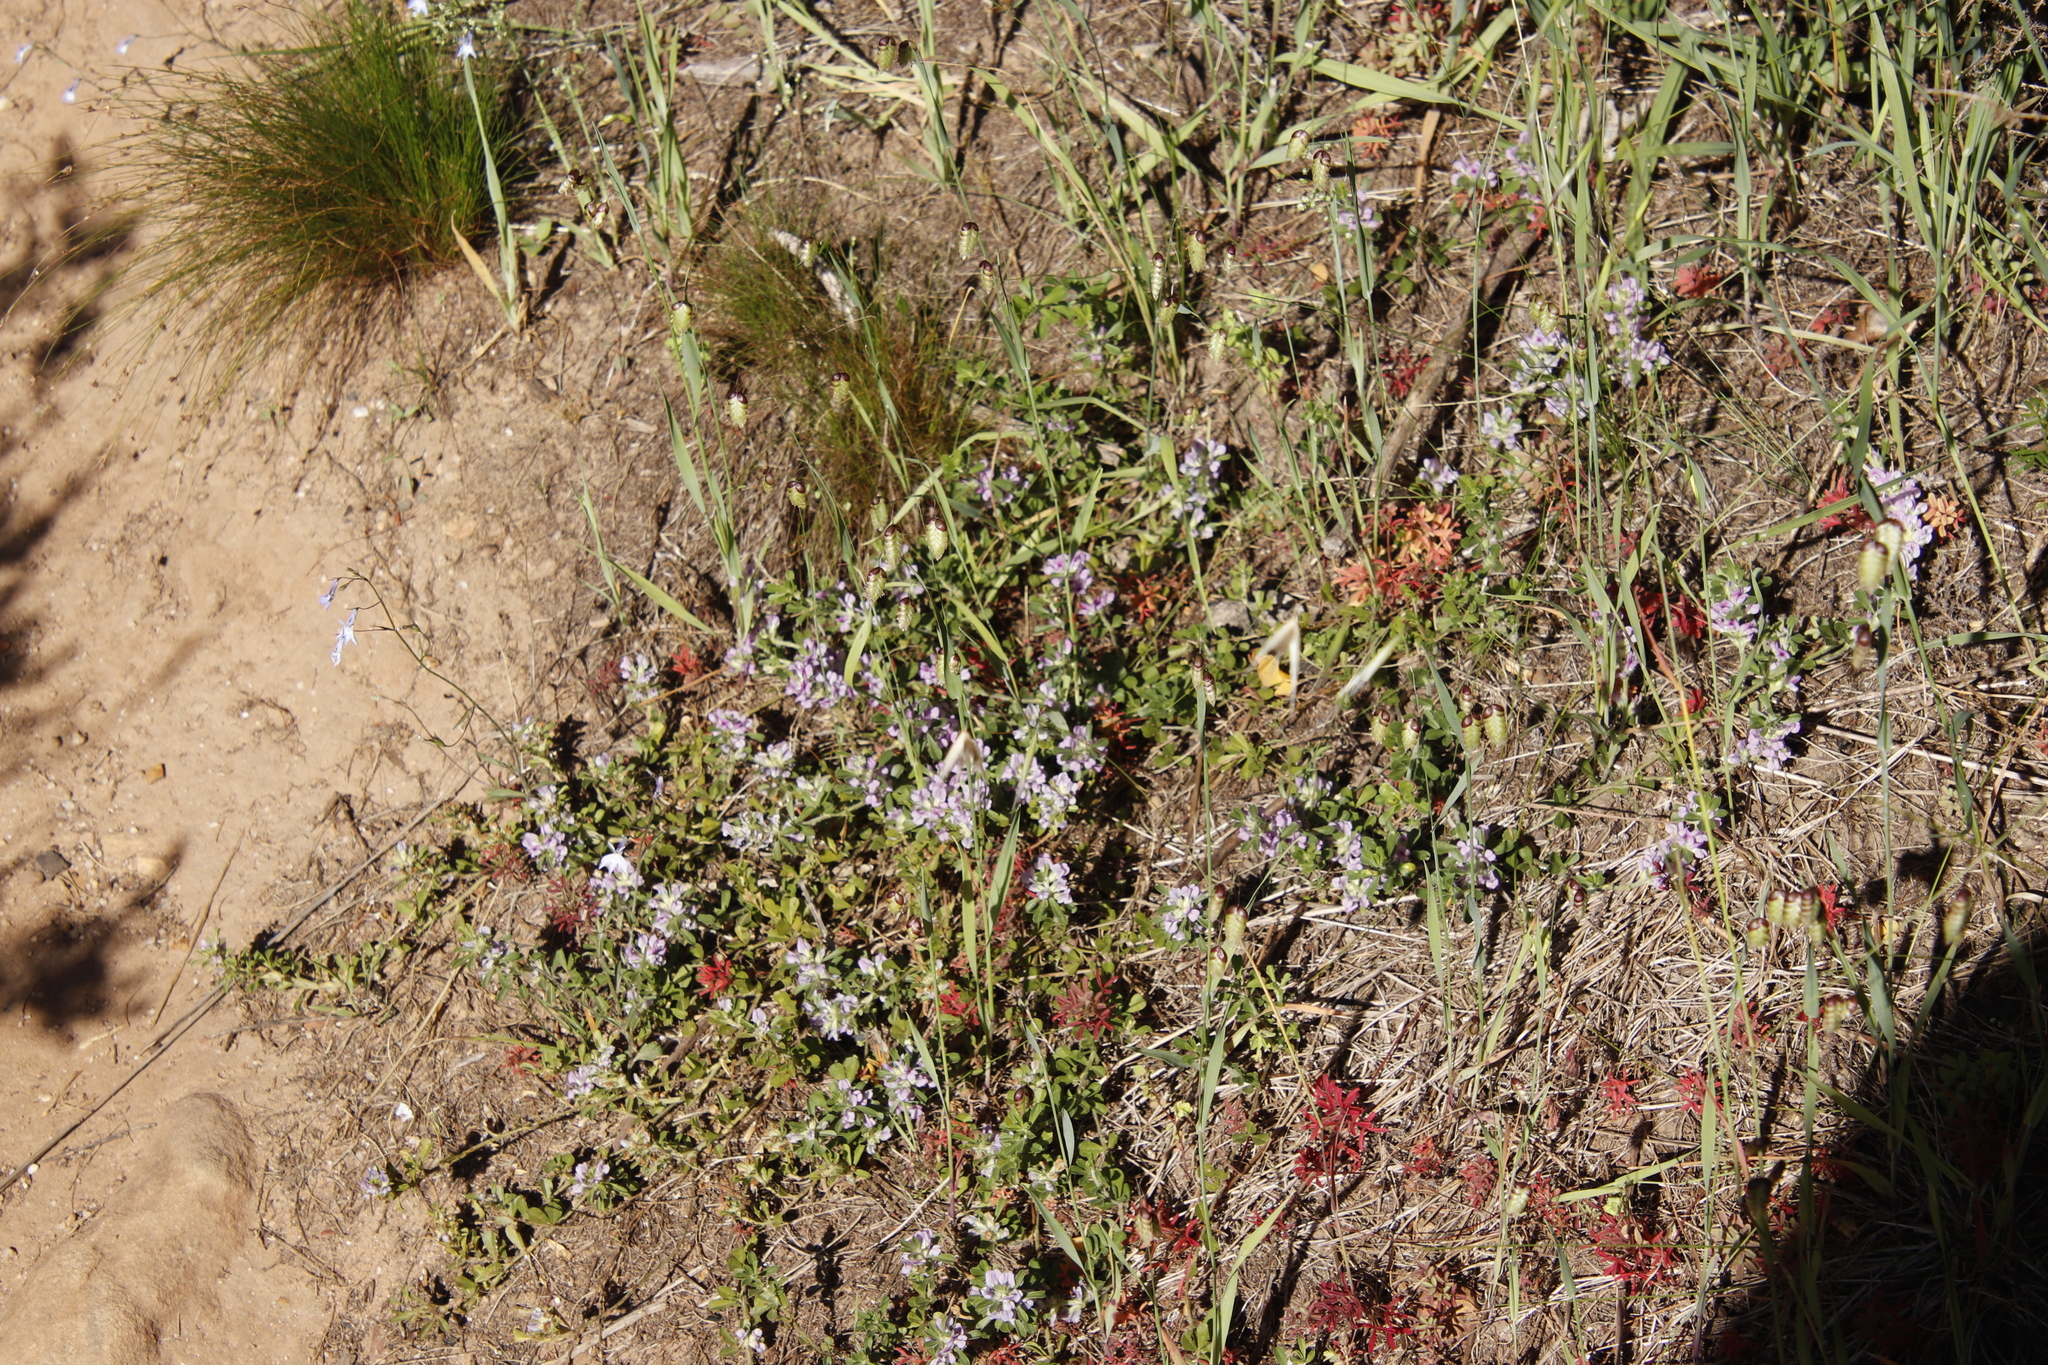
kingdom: Plantae
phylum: Tracheophyta
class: Magnoliopsida
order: Fabales
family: Fabaceae
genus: Psoralea
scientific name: Psoralea
